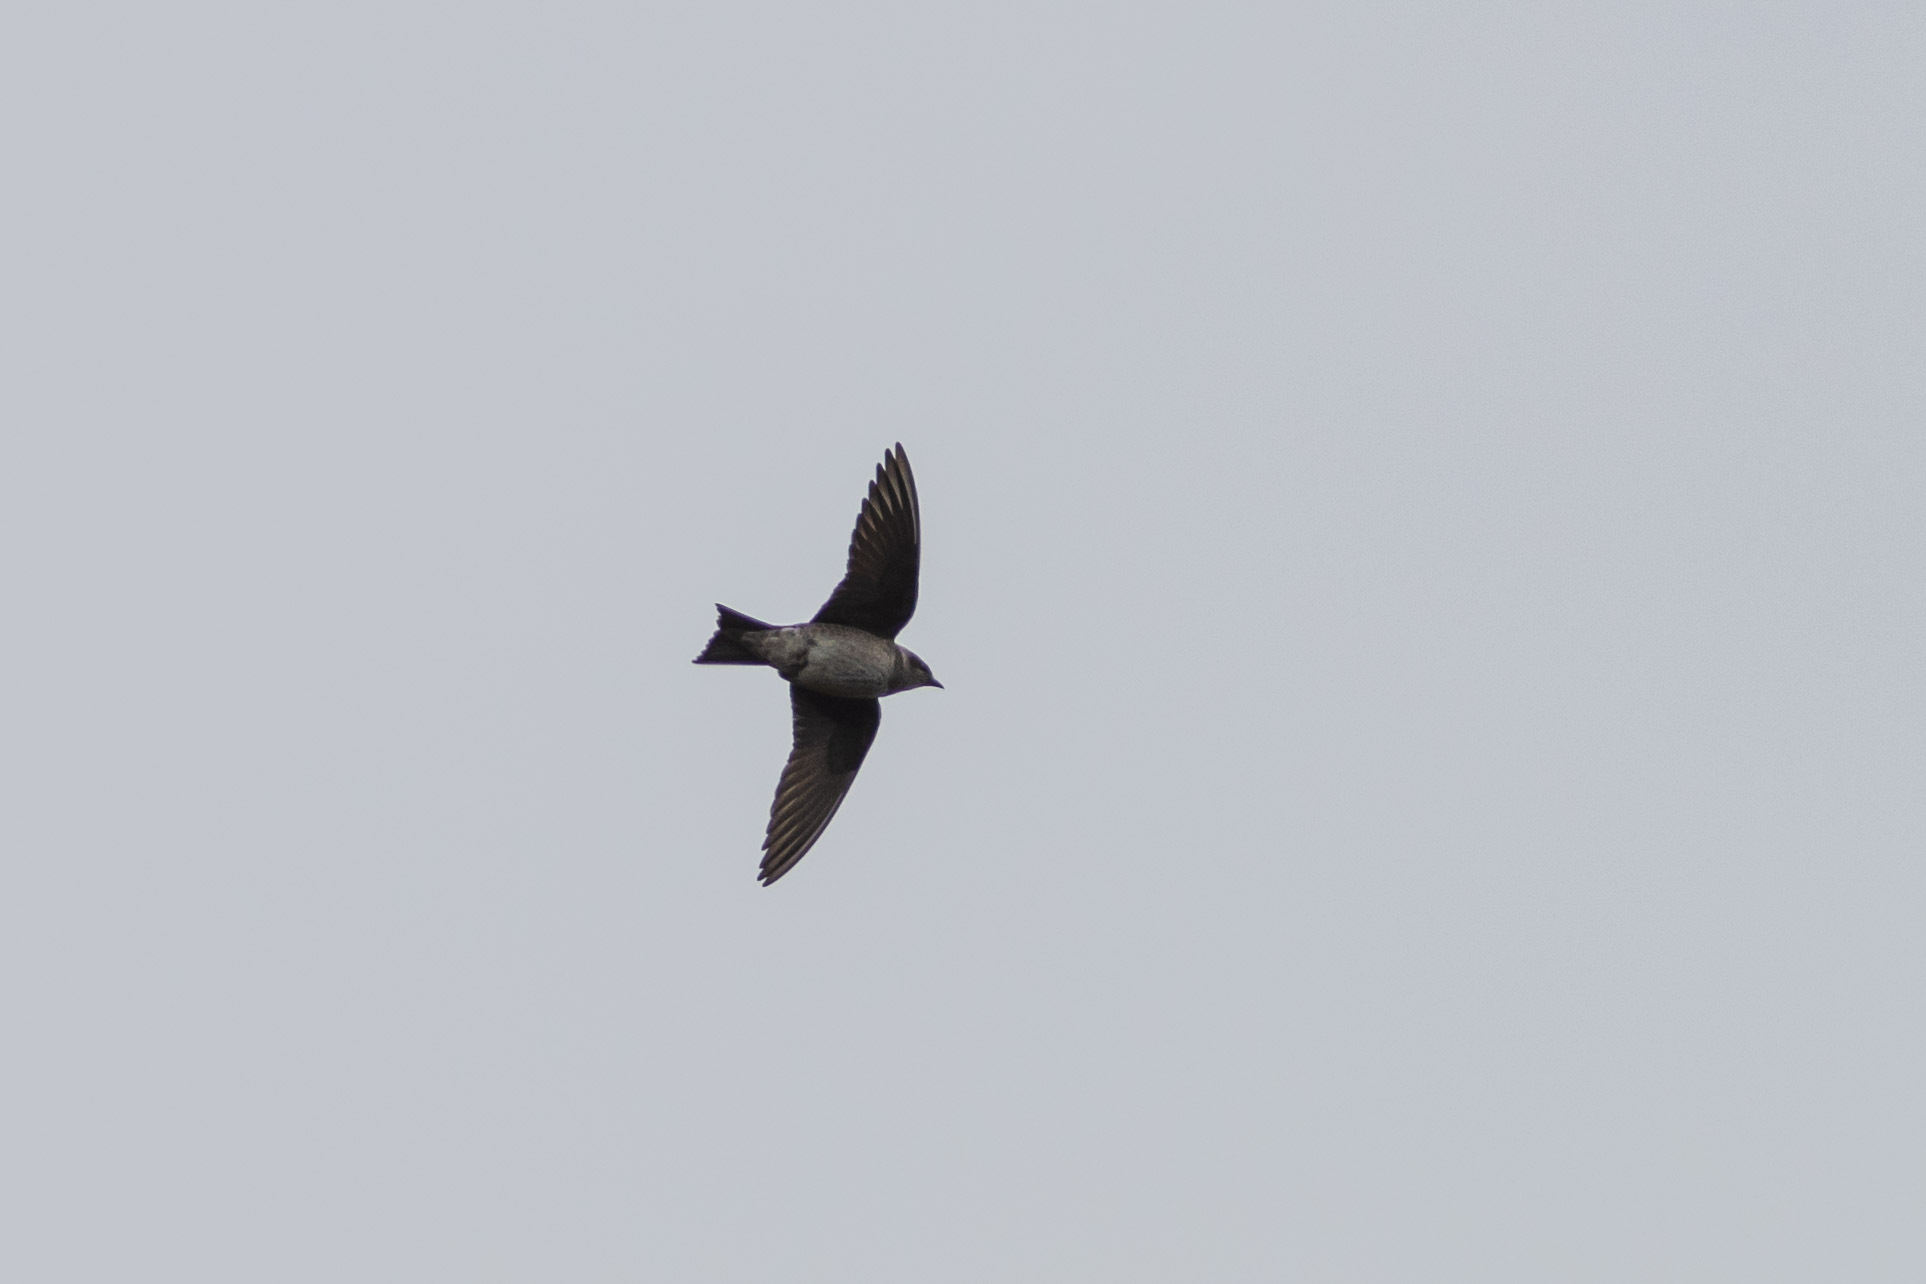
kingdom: Animalia
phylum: Chordata
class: Aves
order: Passeriformes
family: Hirundinidae
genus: Progne
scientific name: Progne subis
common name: Purple martin
